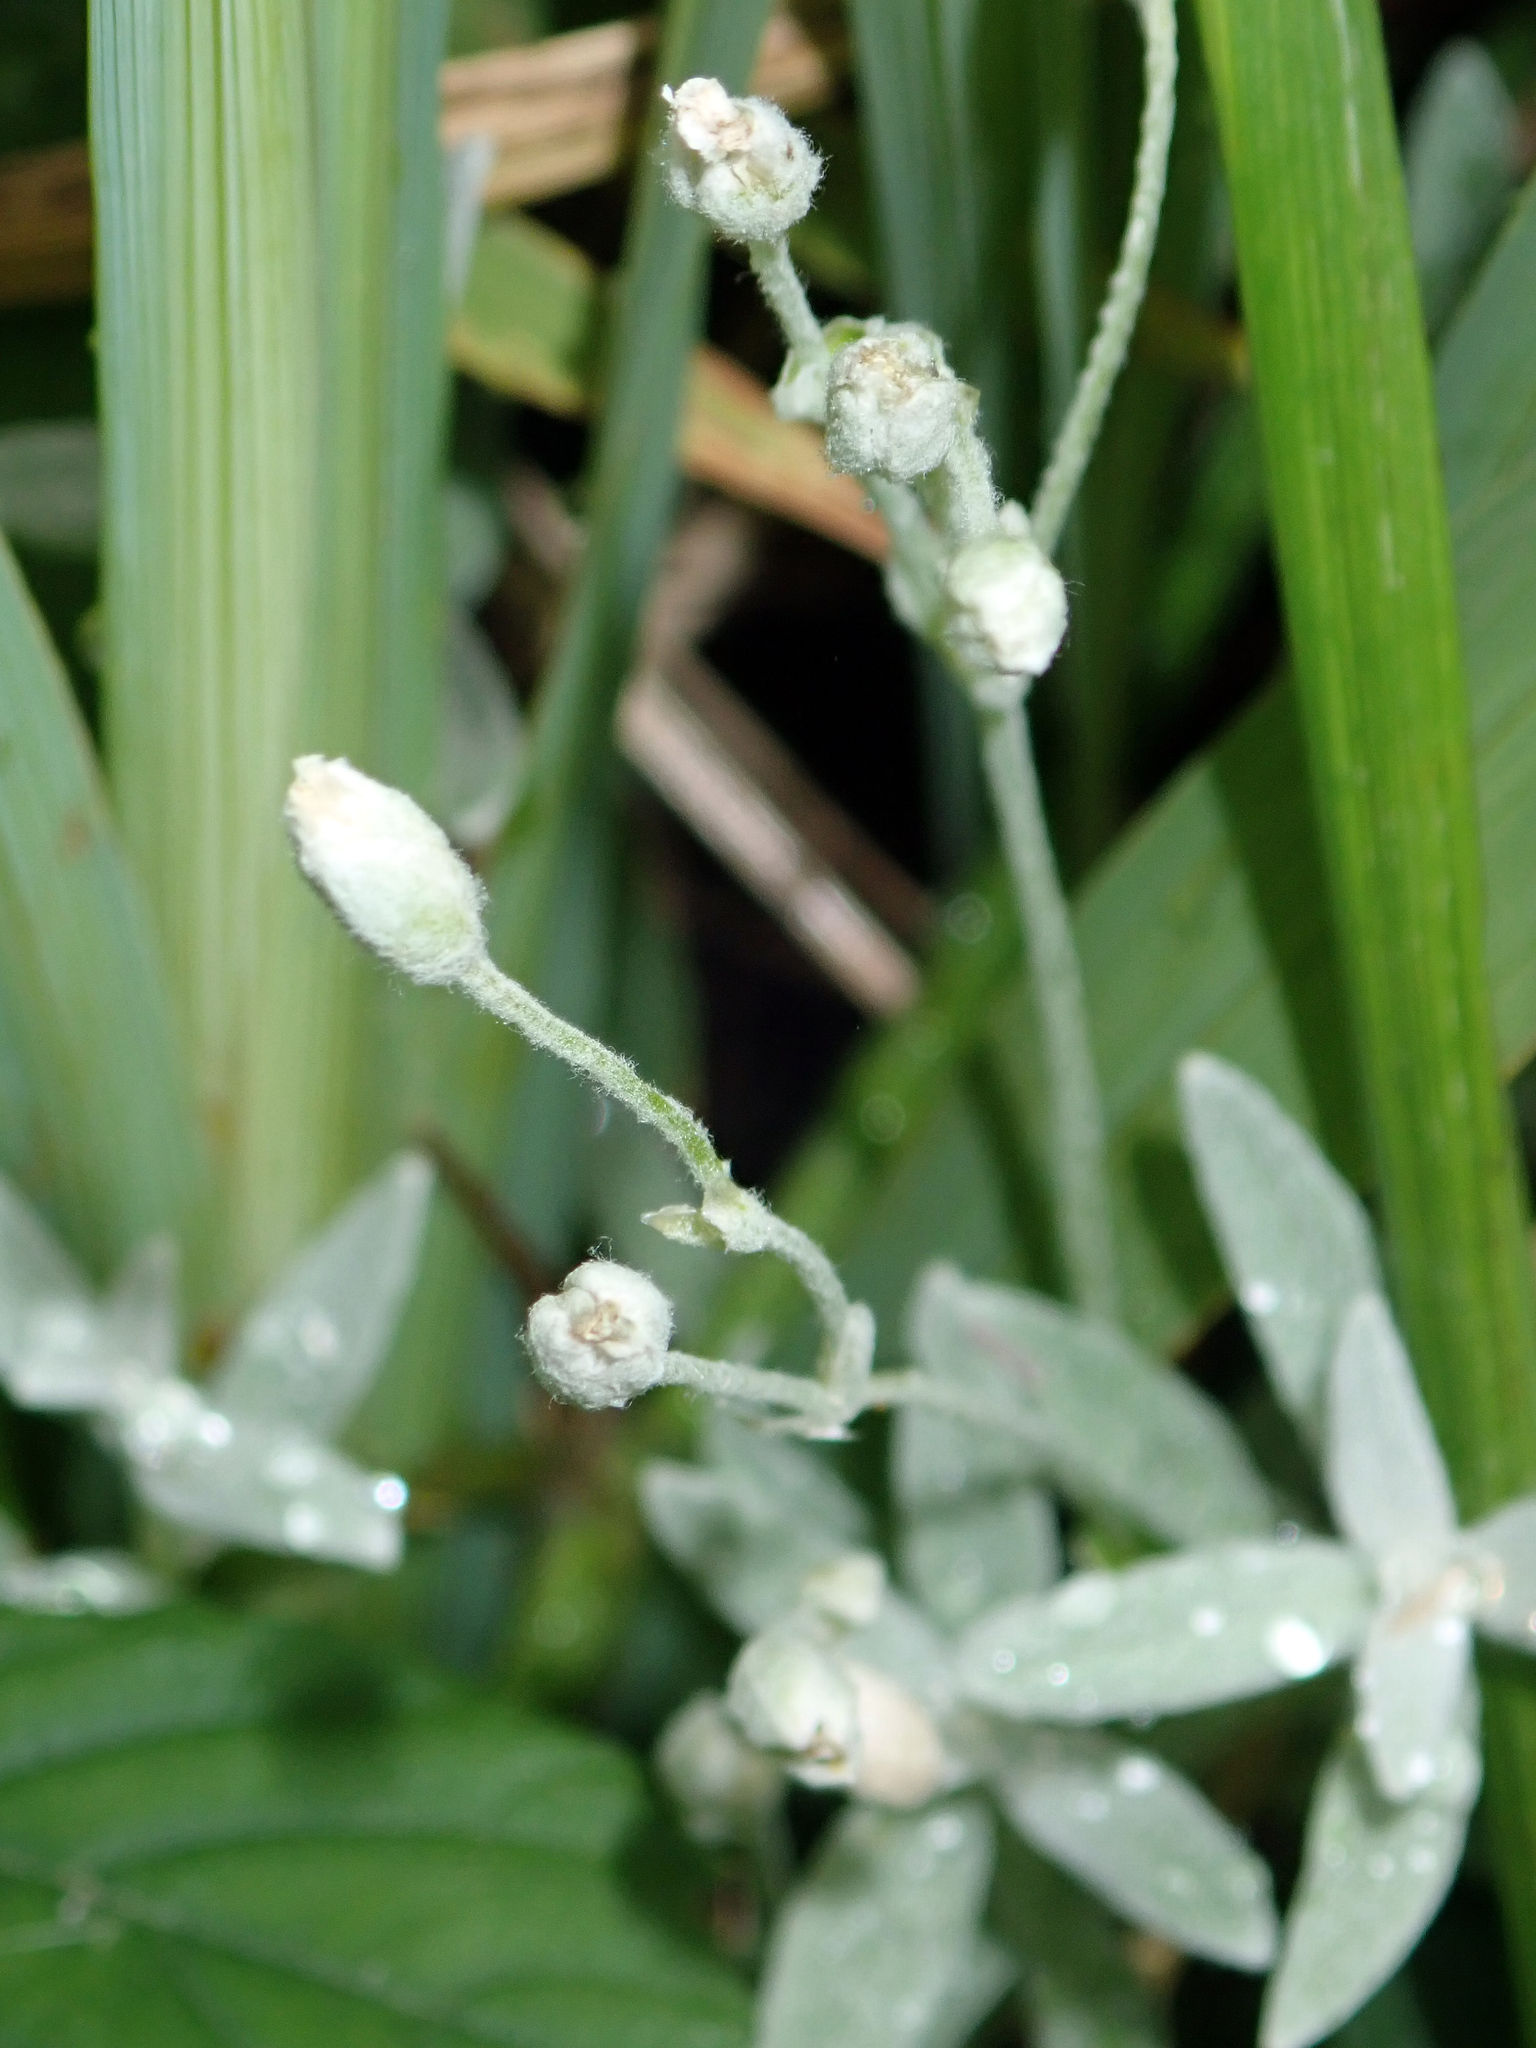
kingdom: Plantae
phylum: Tracheophyta
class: Magnoliopsida
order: Caryophyllales
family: Caryophyllaceae
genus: Cerastium
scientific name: Cerastium tomentosum
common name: Snow-in-summer
